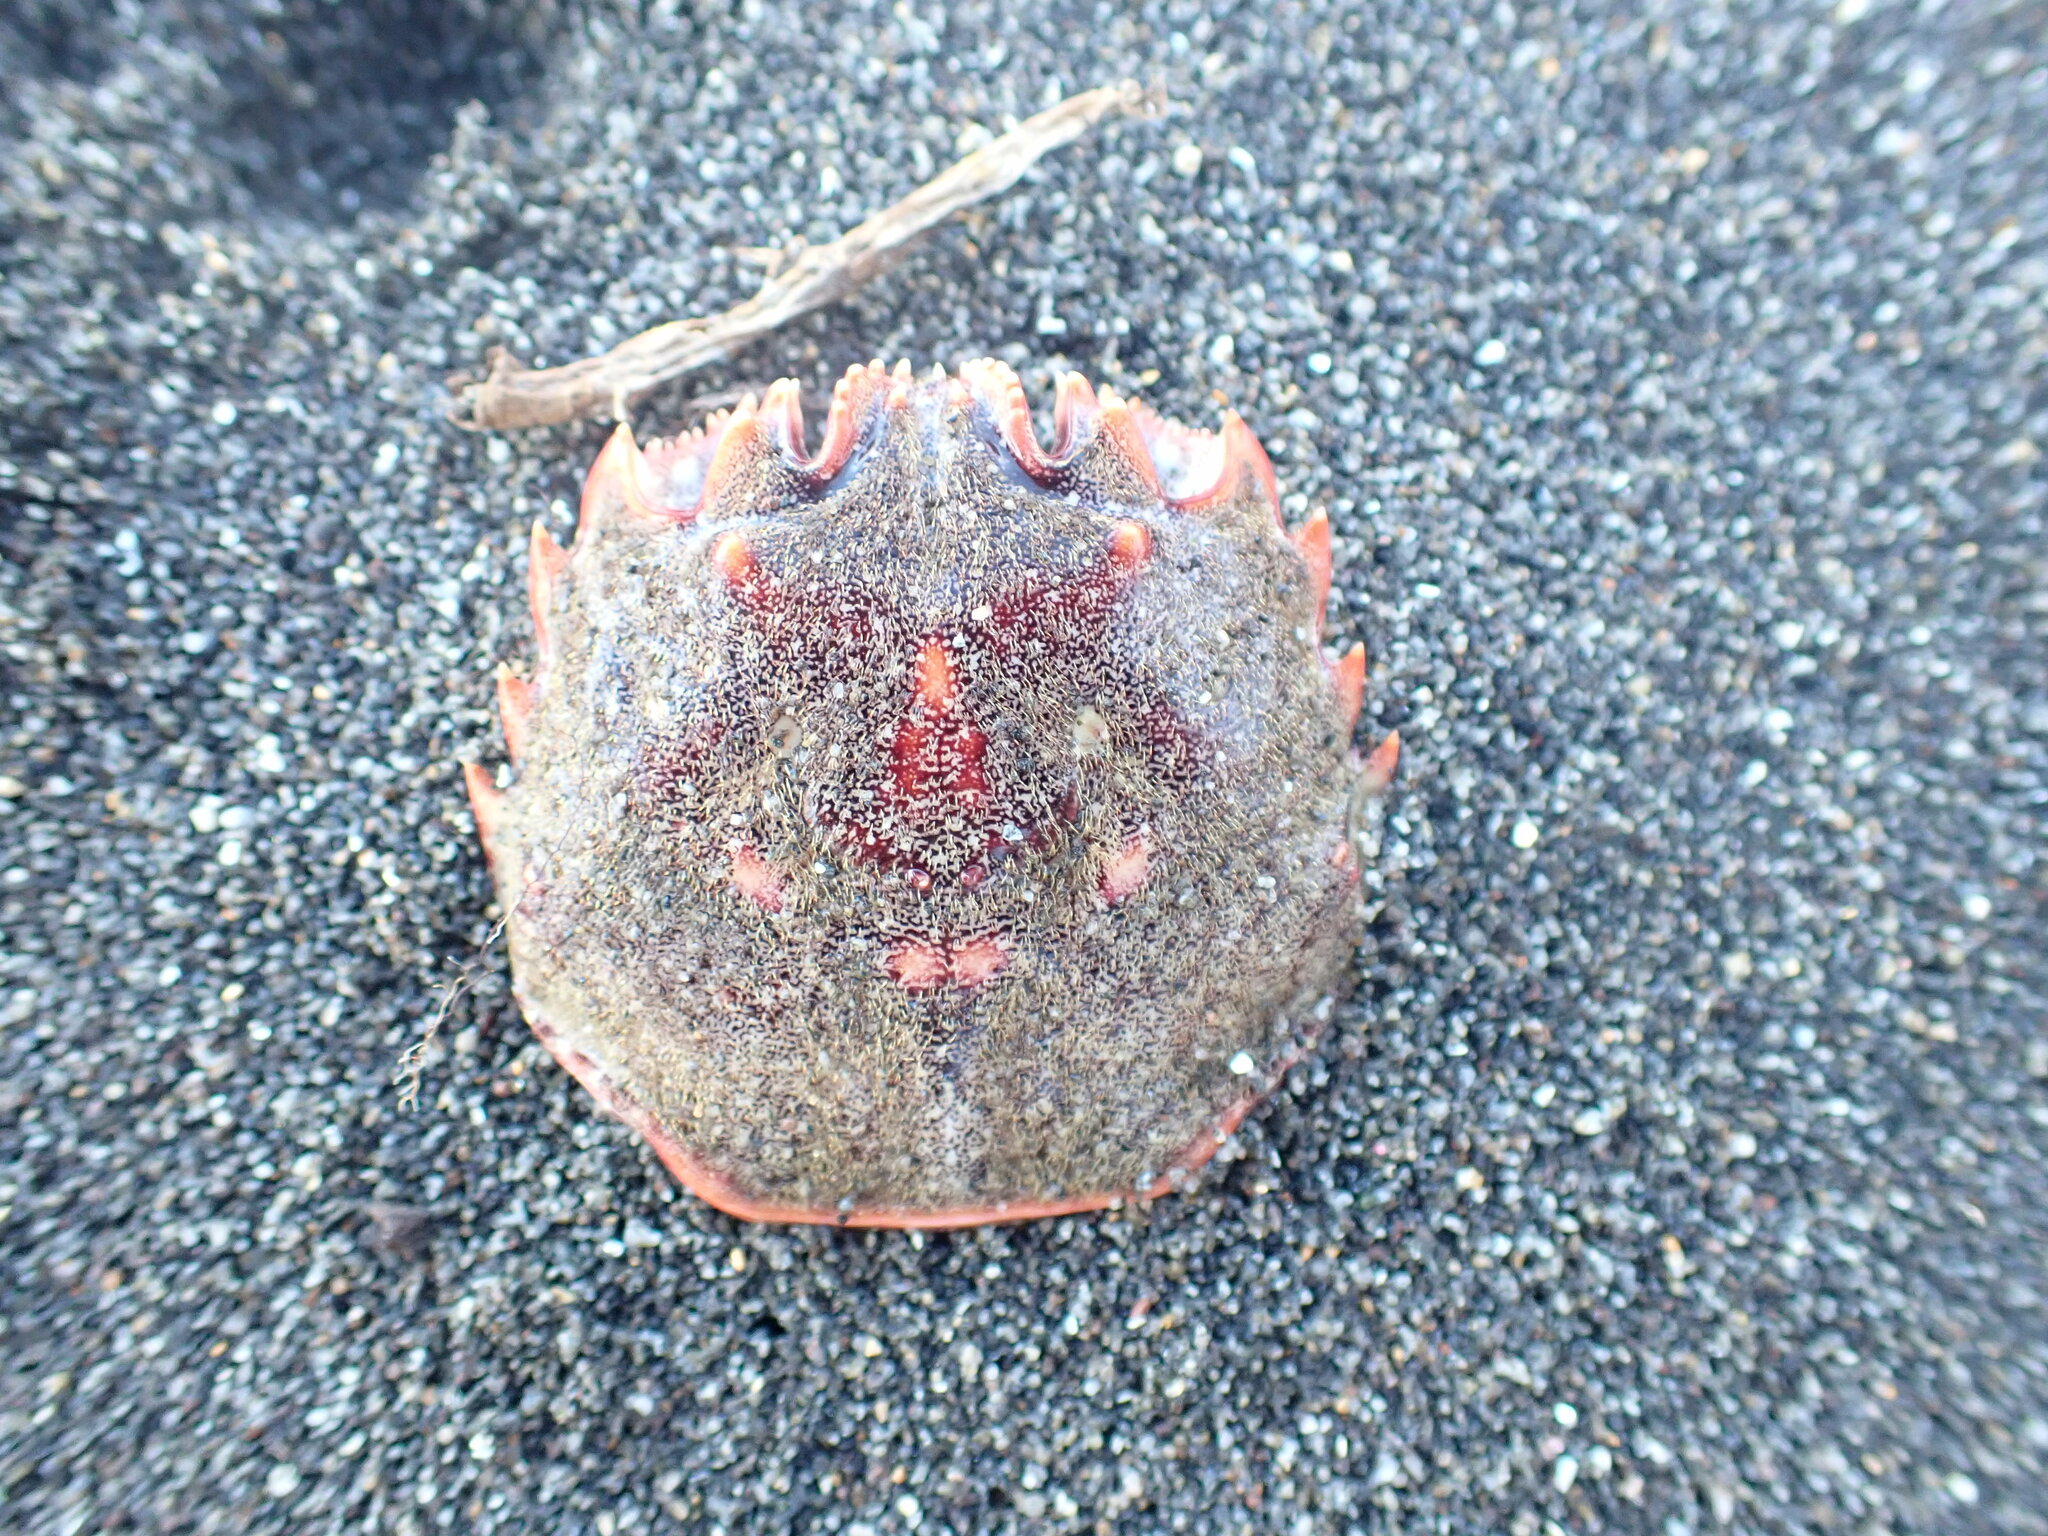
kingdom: Animalia
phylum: Arthropoda
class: Malacostraca
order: Decapoda
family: Plagusiidae
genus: Guinusia
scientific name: Guinusia chabrus
